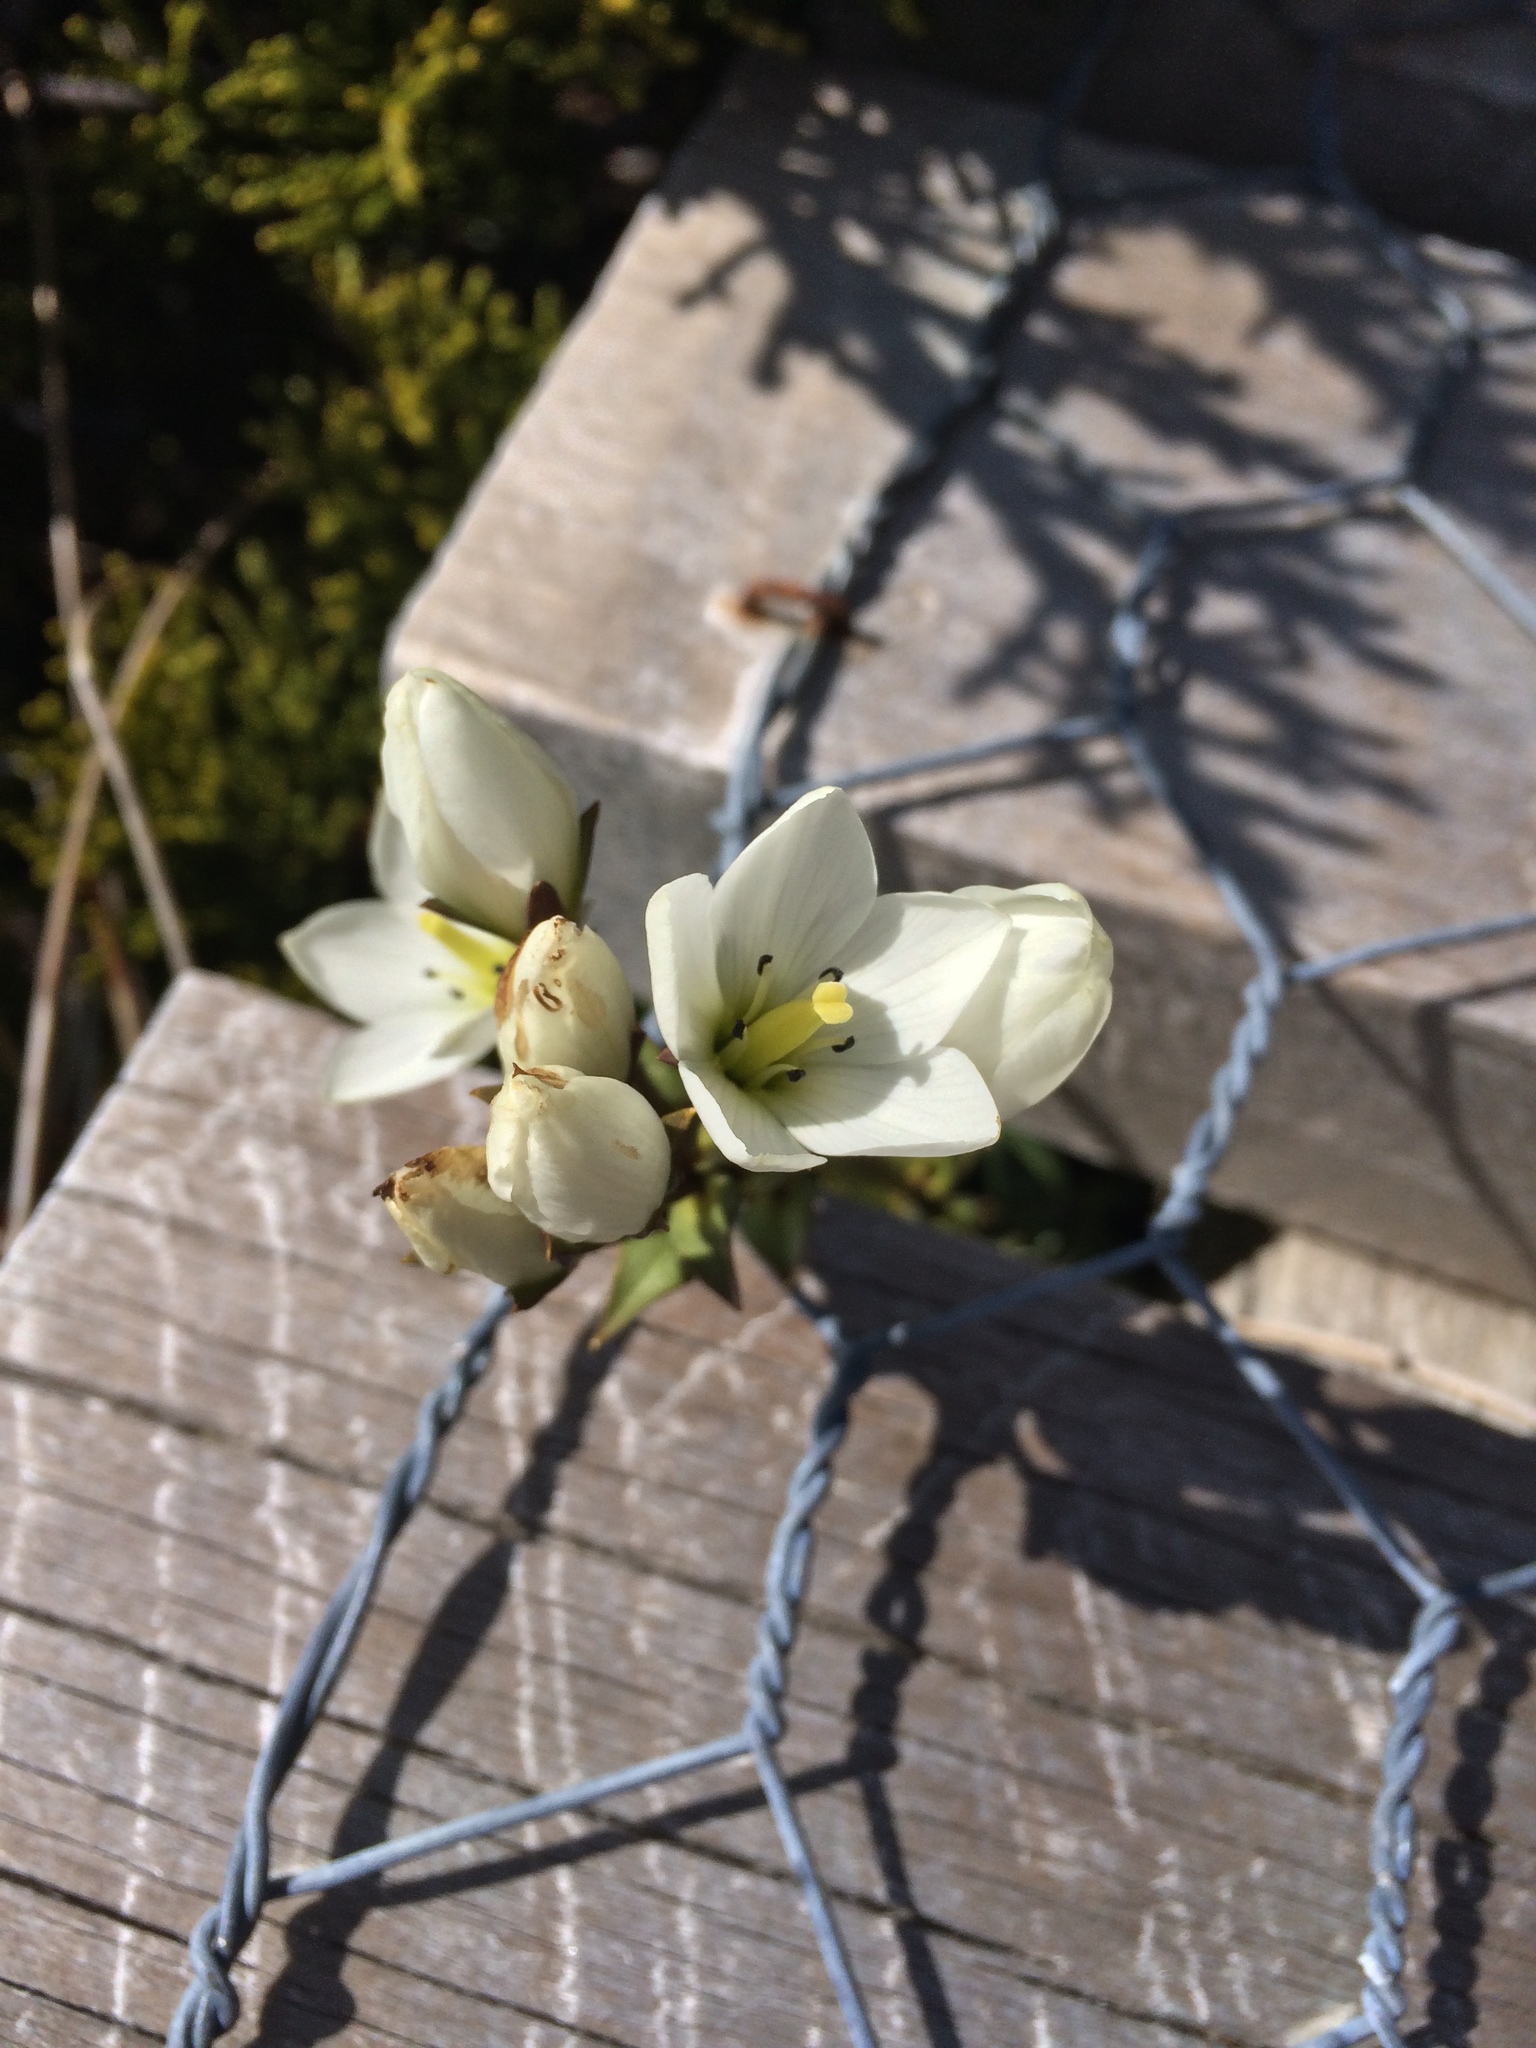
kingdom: Plantae
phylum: Tracheophyta
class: Magnoliopsida
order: Gentianales
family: Gentianaceae
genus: Gentianella
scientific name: Gentianella montana
